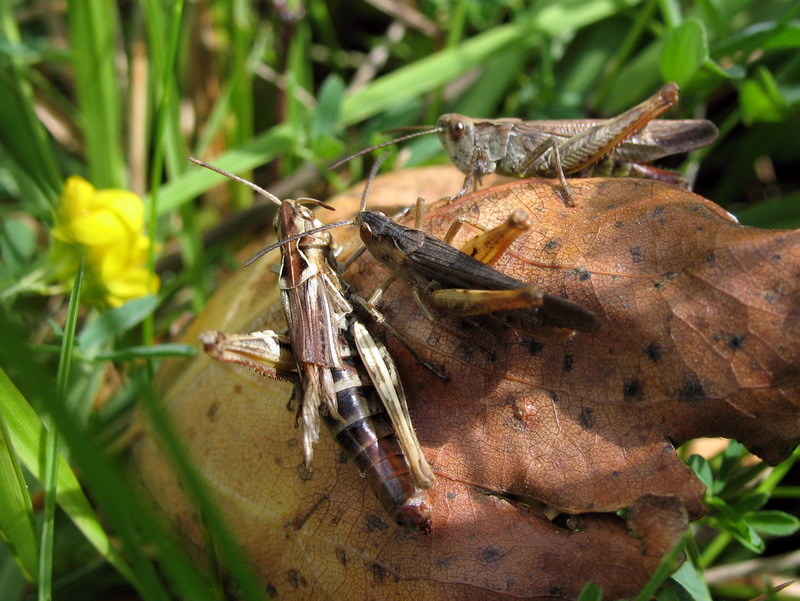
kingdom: Animalia
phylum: Arthropoda
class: Insecta
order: Orthoptera
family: Acrididae
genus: Chorthippus
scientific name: Chorthippus biguttulus
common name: Bow-winged grasshopper
